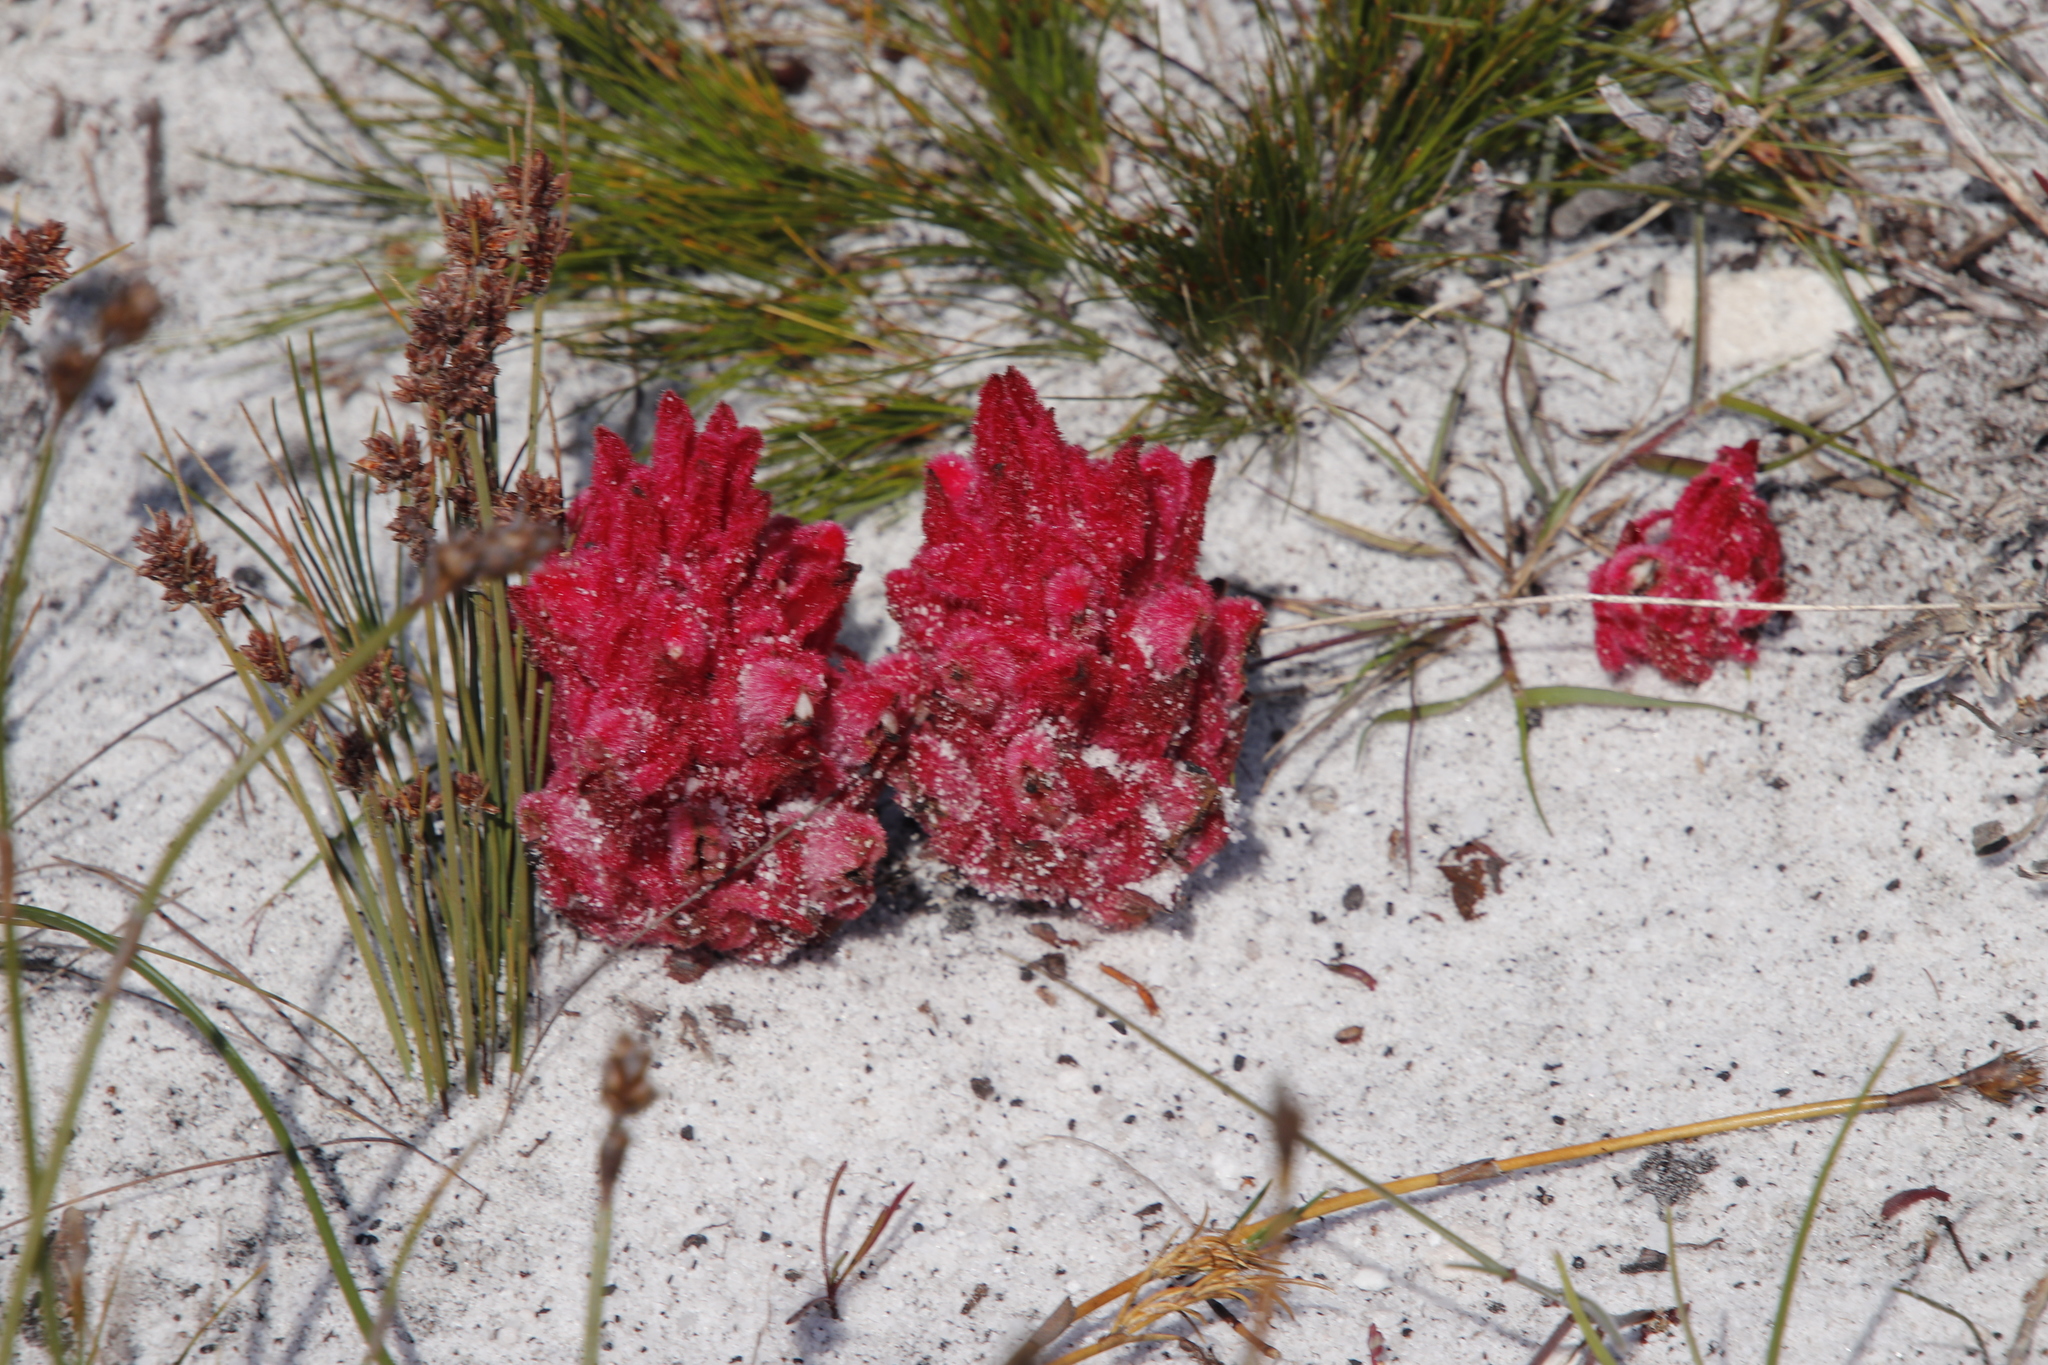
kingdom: Plantae
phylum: Tracheophyta
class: Magnoliopsida
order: Lamiales
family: Orobanchaceae
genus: Hyobanche
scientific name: Hyobanche sanguinea
